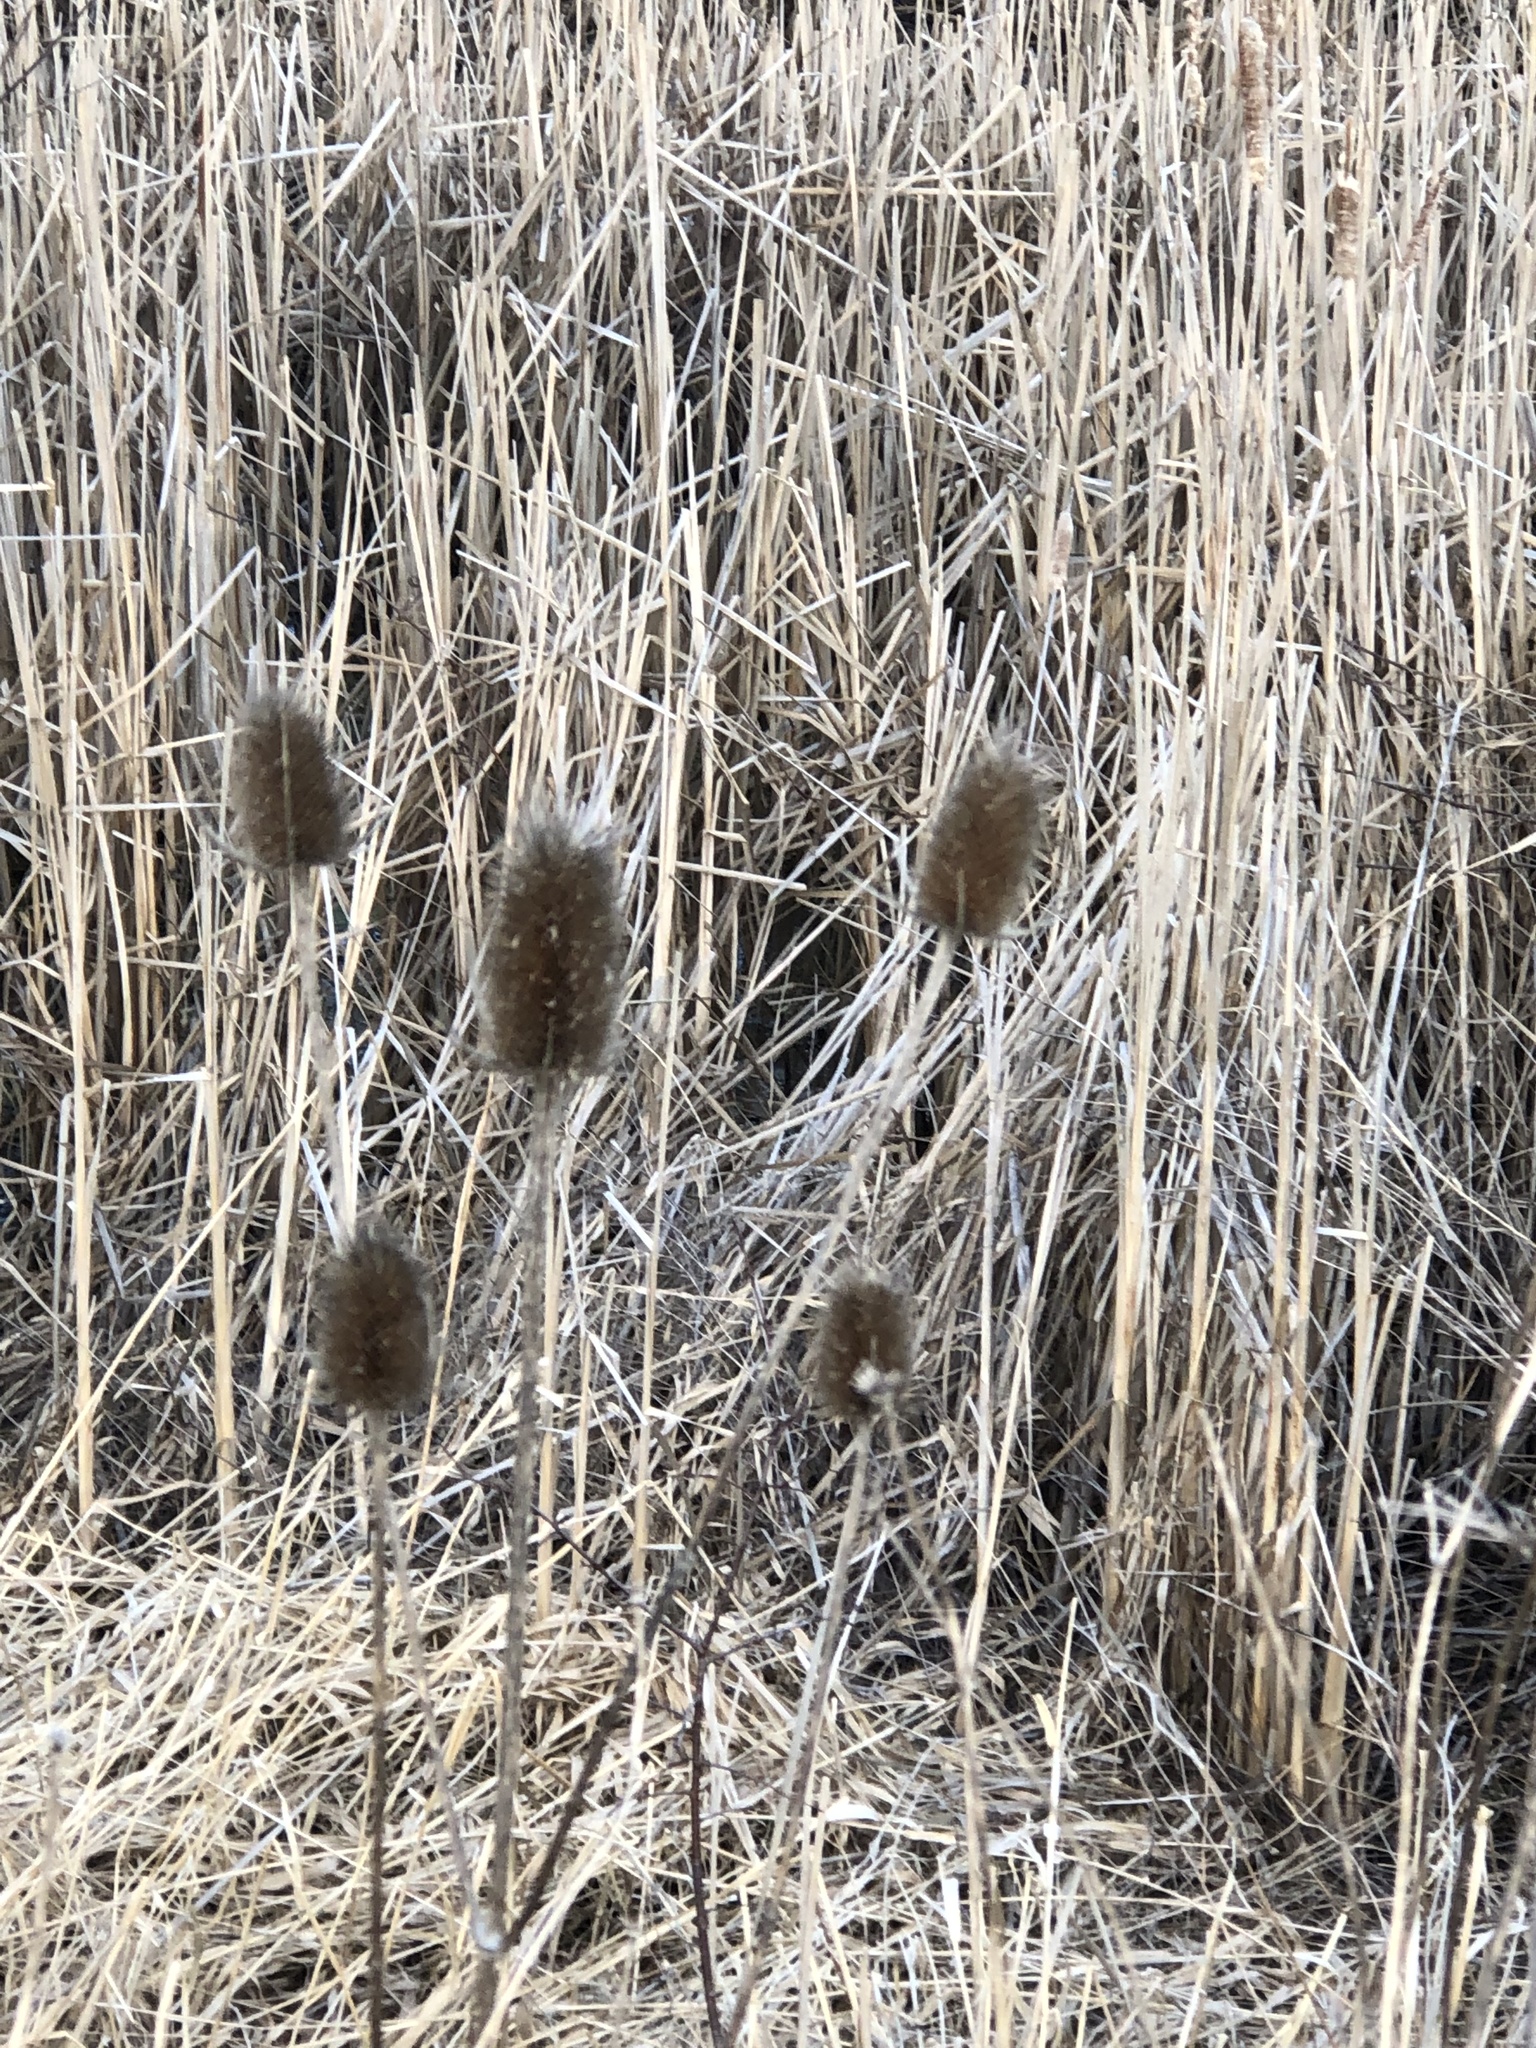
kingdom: Plantae
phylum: Tracheophyta
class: Magnoliopsida
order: Dipsacales
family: Caprifoliaceae
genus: Dipsacus
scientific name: Dipsacus fullonum
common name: Teasel
